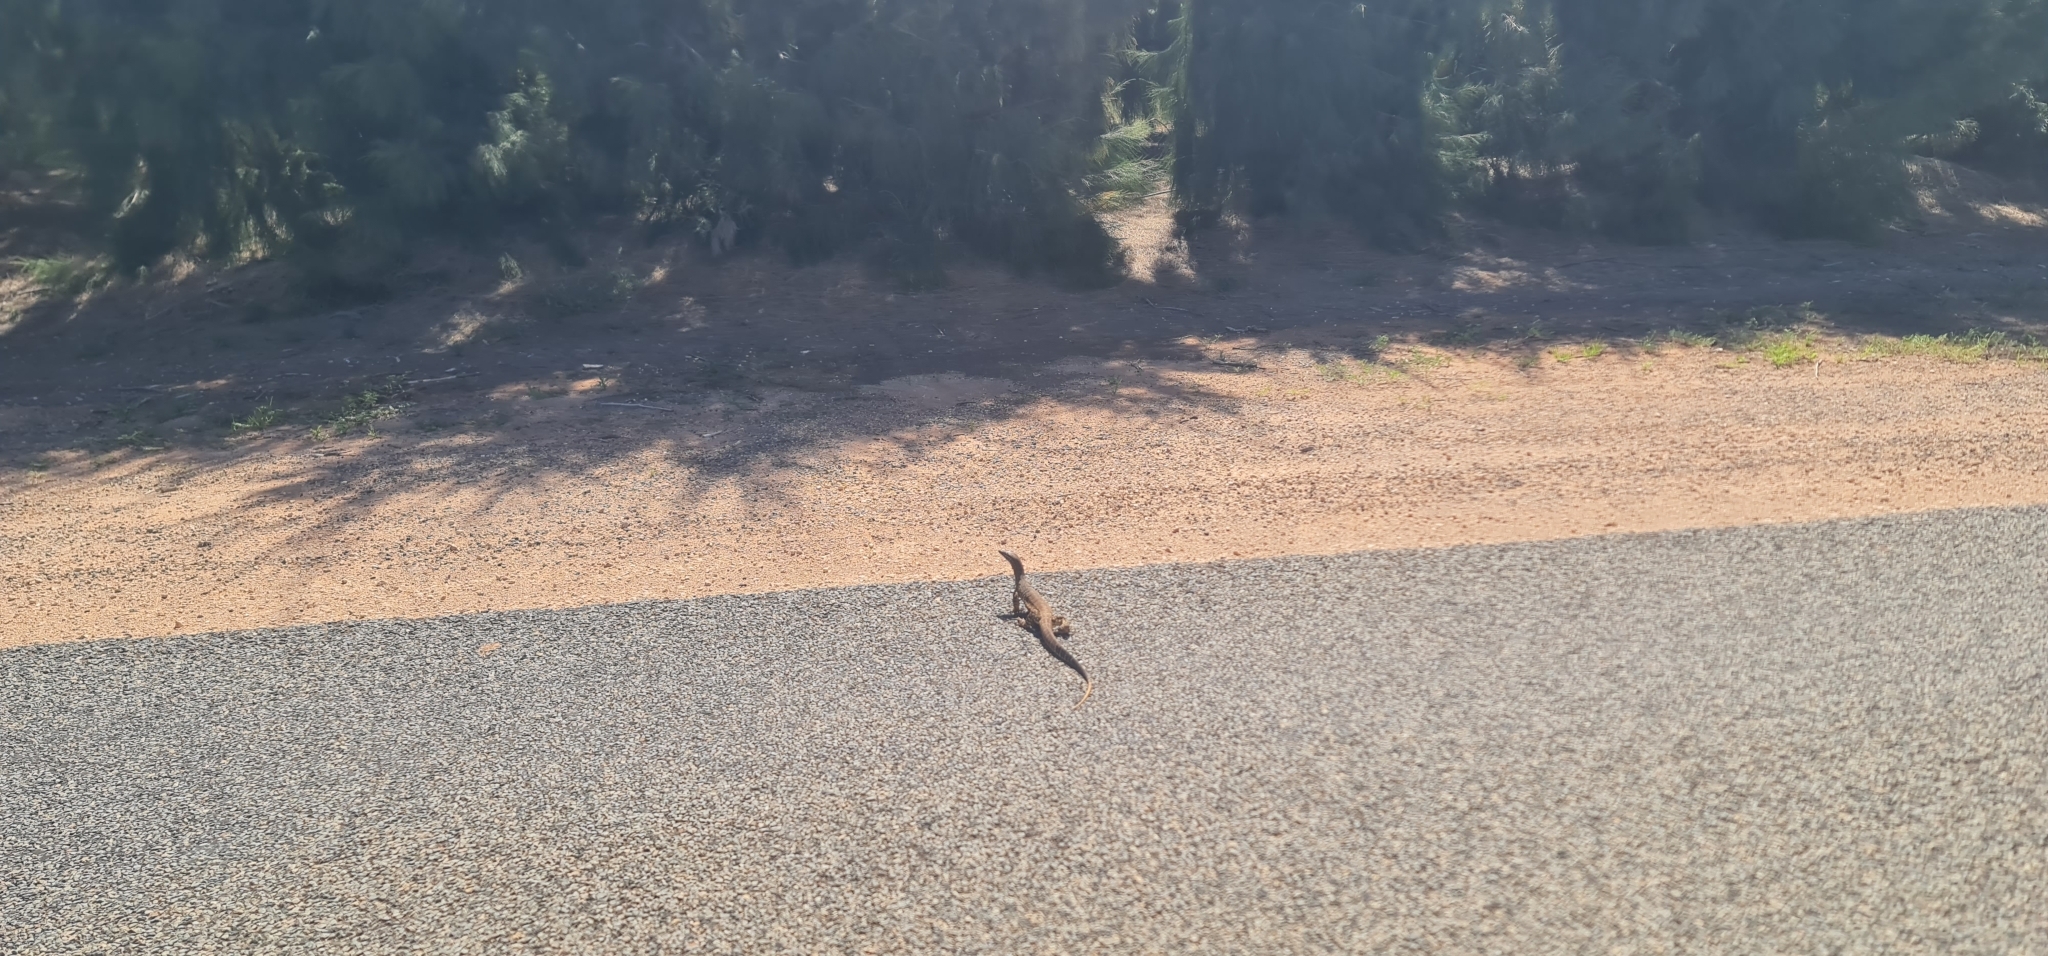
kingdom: Animalia
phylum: Chordata
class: Squamata
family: Varanidae
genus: Varanus
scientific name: Varanus gouldii
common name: Gould's goanna
